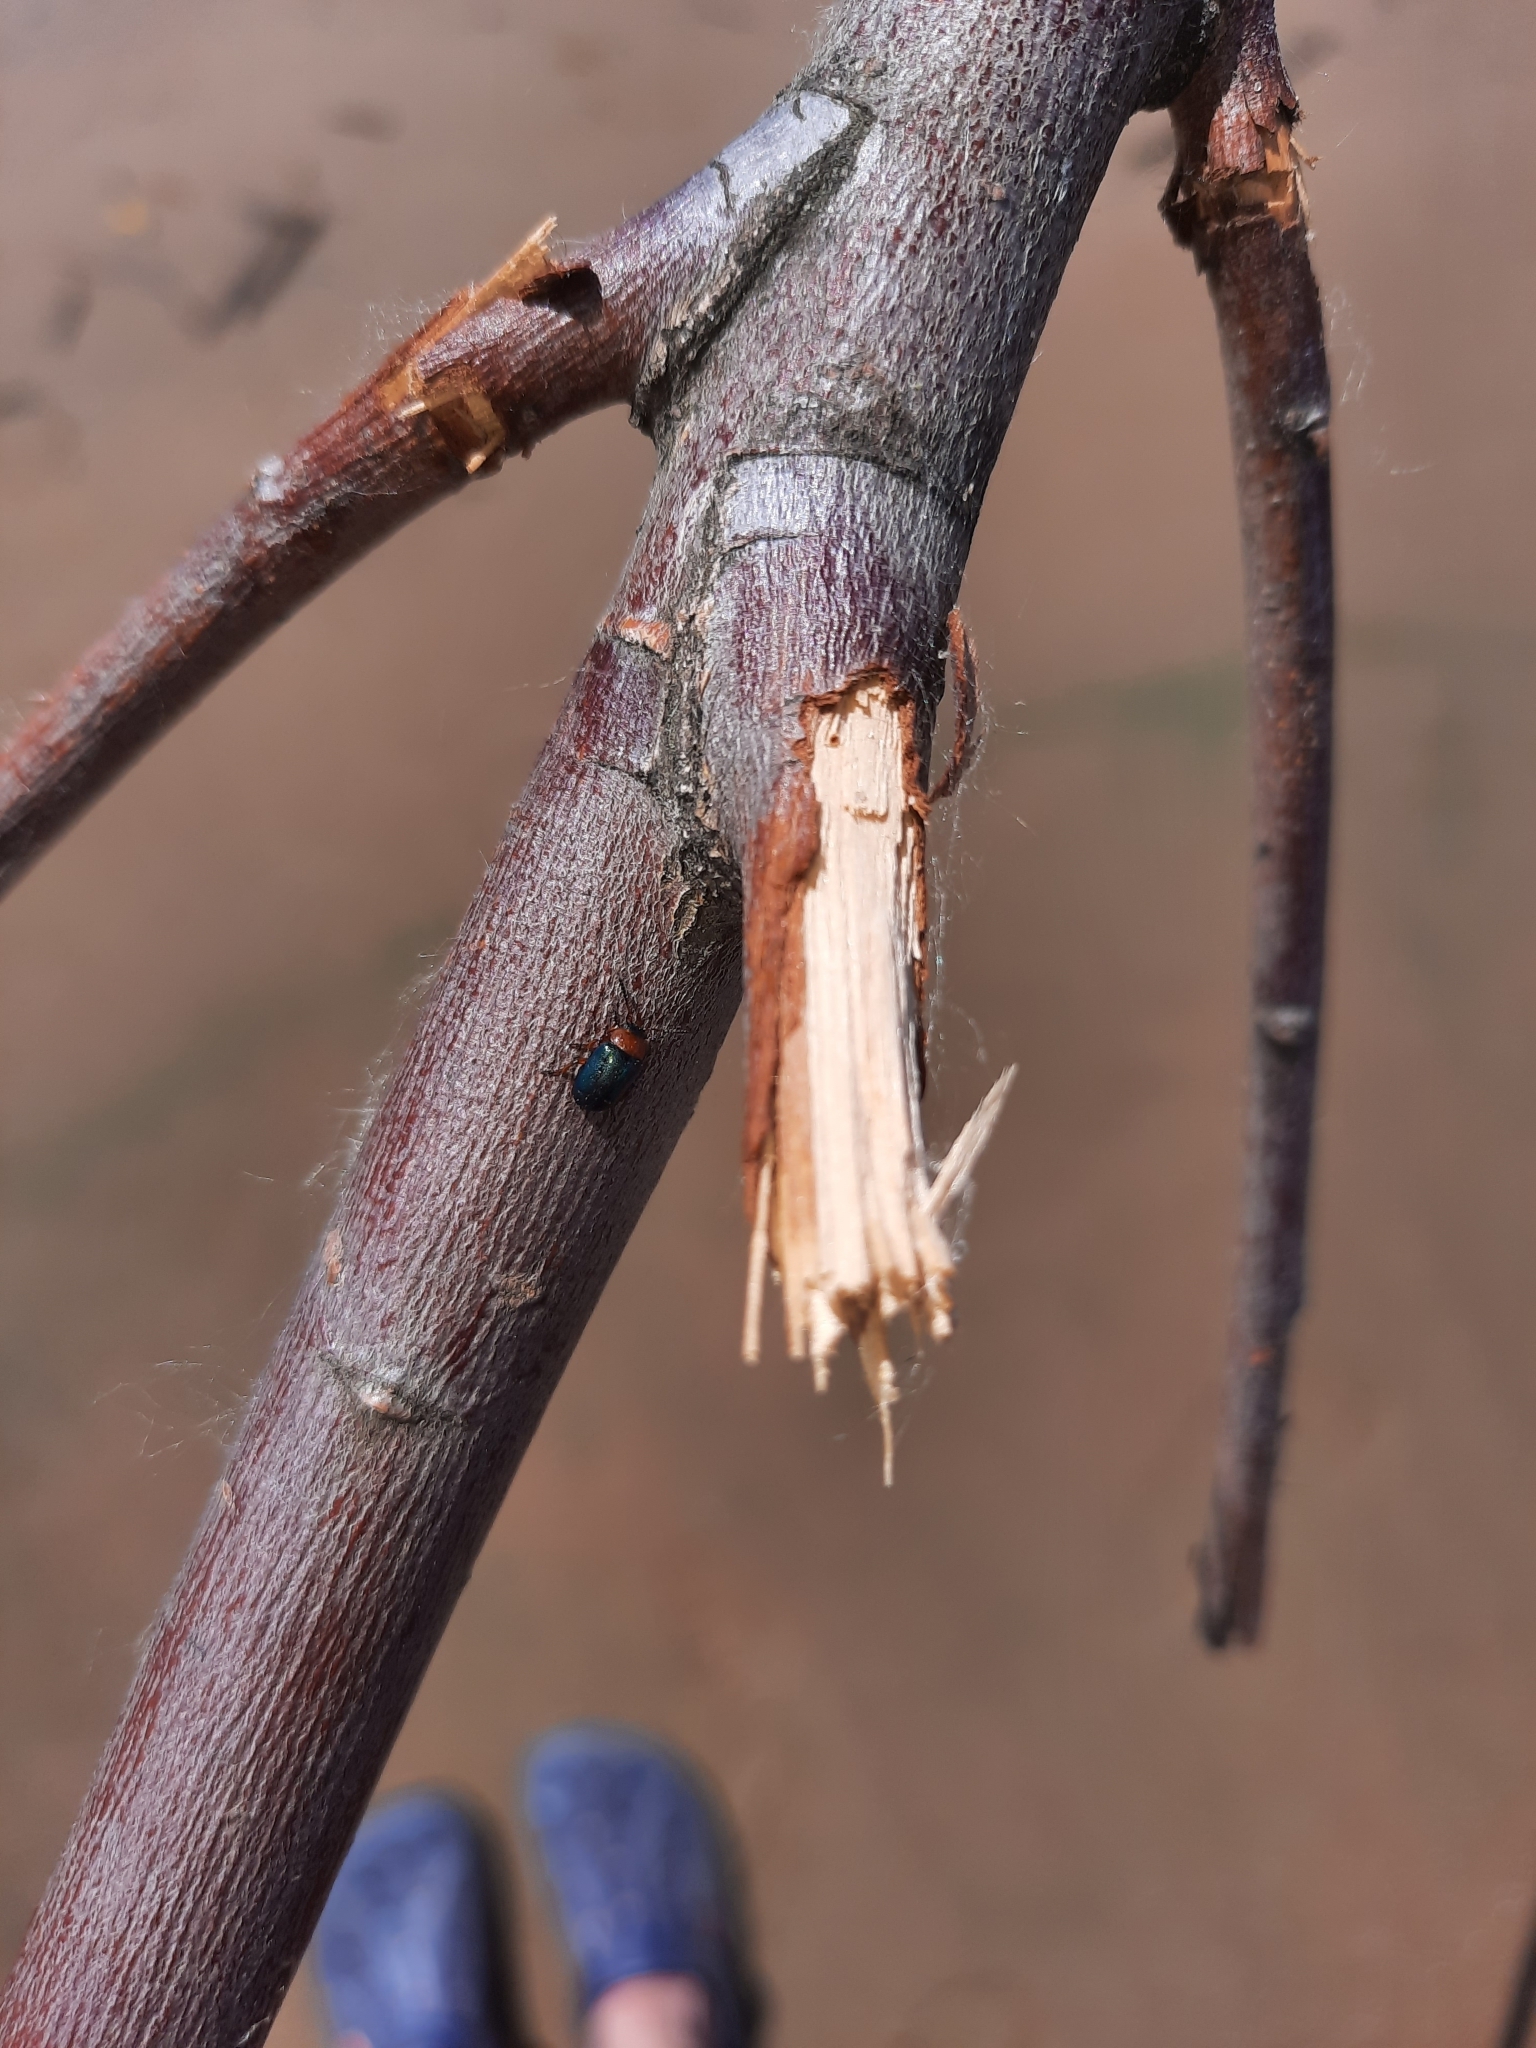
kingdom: Animalia
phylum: Arthropoda
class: Insecta
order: Coleoptera
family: Chrysomelidae
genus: Gastrophysa
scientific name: Gastrophysa polygoni
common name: Knotweed leaf beetle
